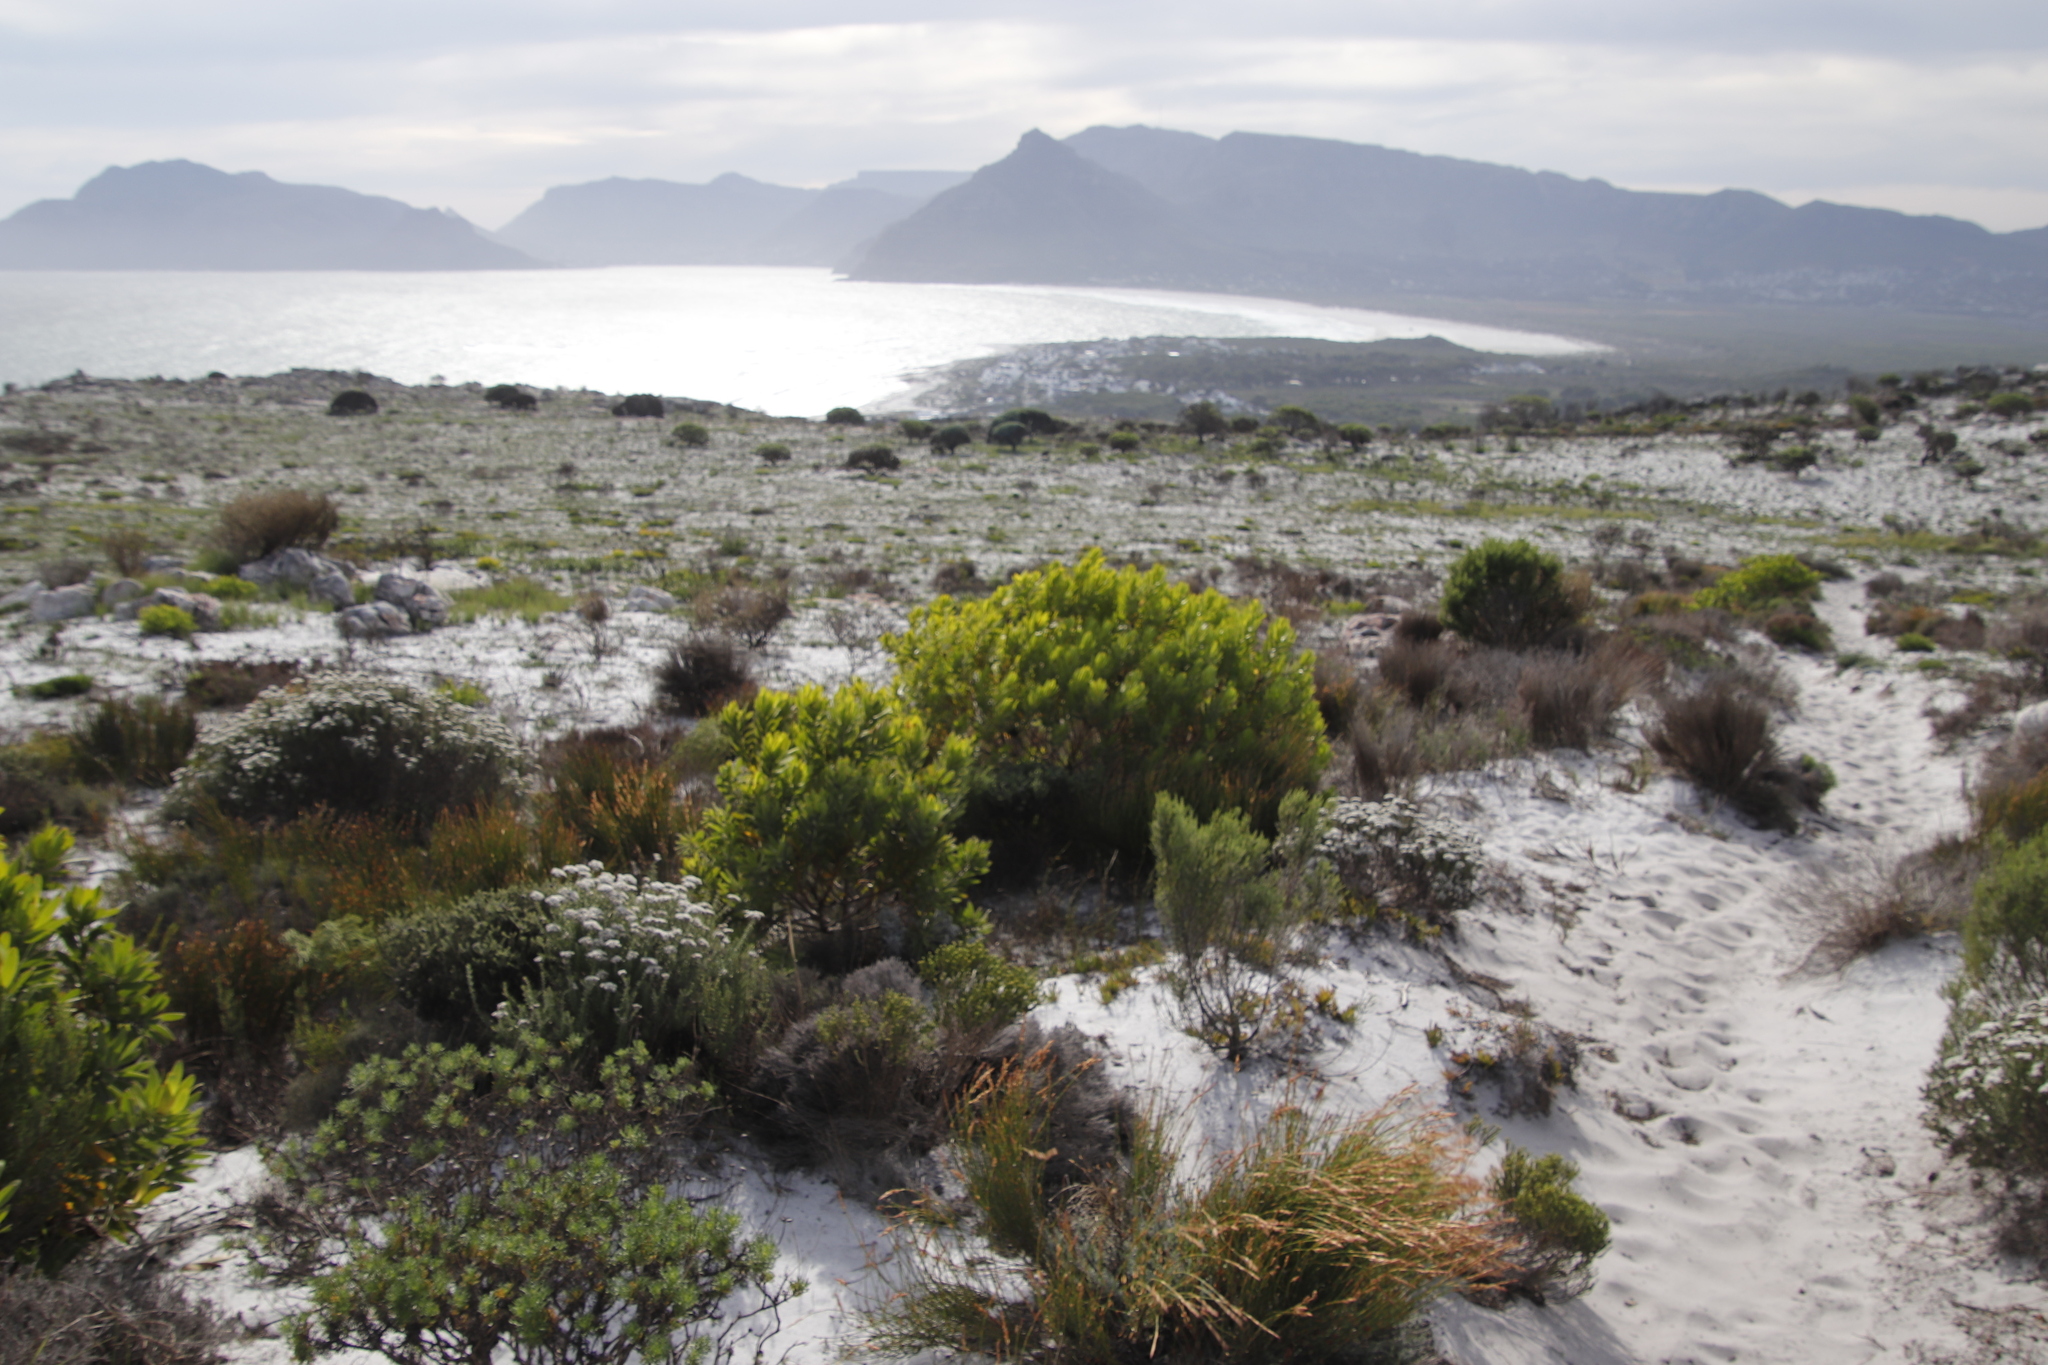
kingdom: Plantae
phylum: Tracheophyta
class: Magnoliopsida
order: Proteales
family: Proteaceae
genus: Leucadendron
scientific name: Leucadendron laureolum
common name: Golden sunshinebush
